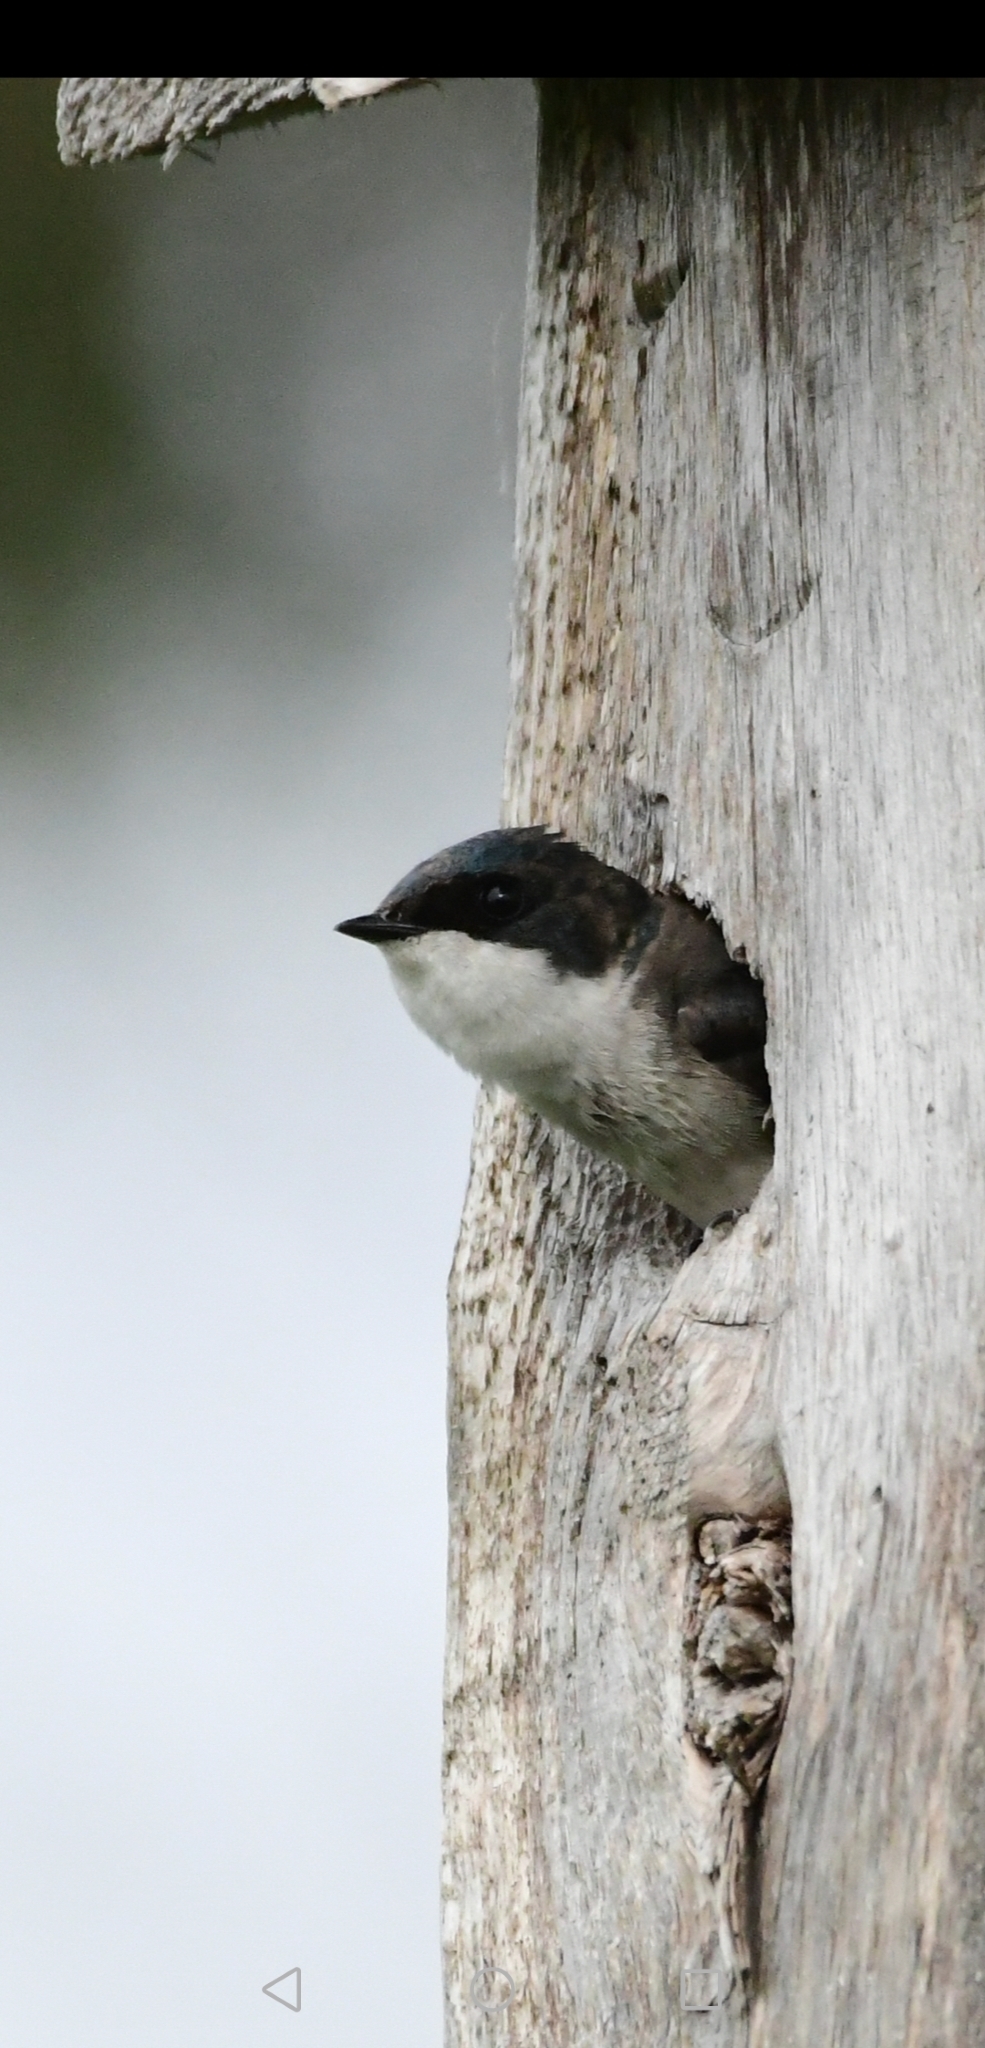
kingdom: Animalia
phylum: Chordata
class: Aves
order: Passeriformes
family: Hirundinidae
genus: Tachycineta
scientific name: Tachycineta bicolor
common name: Tree swallow
